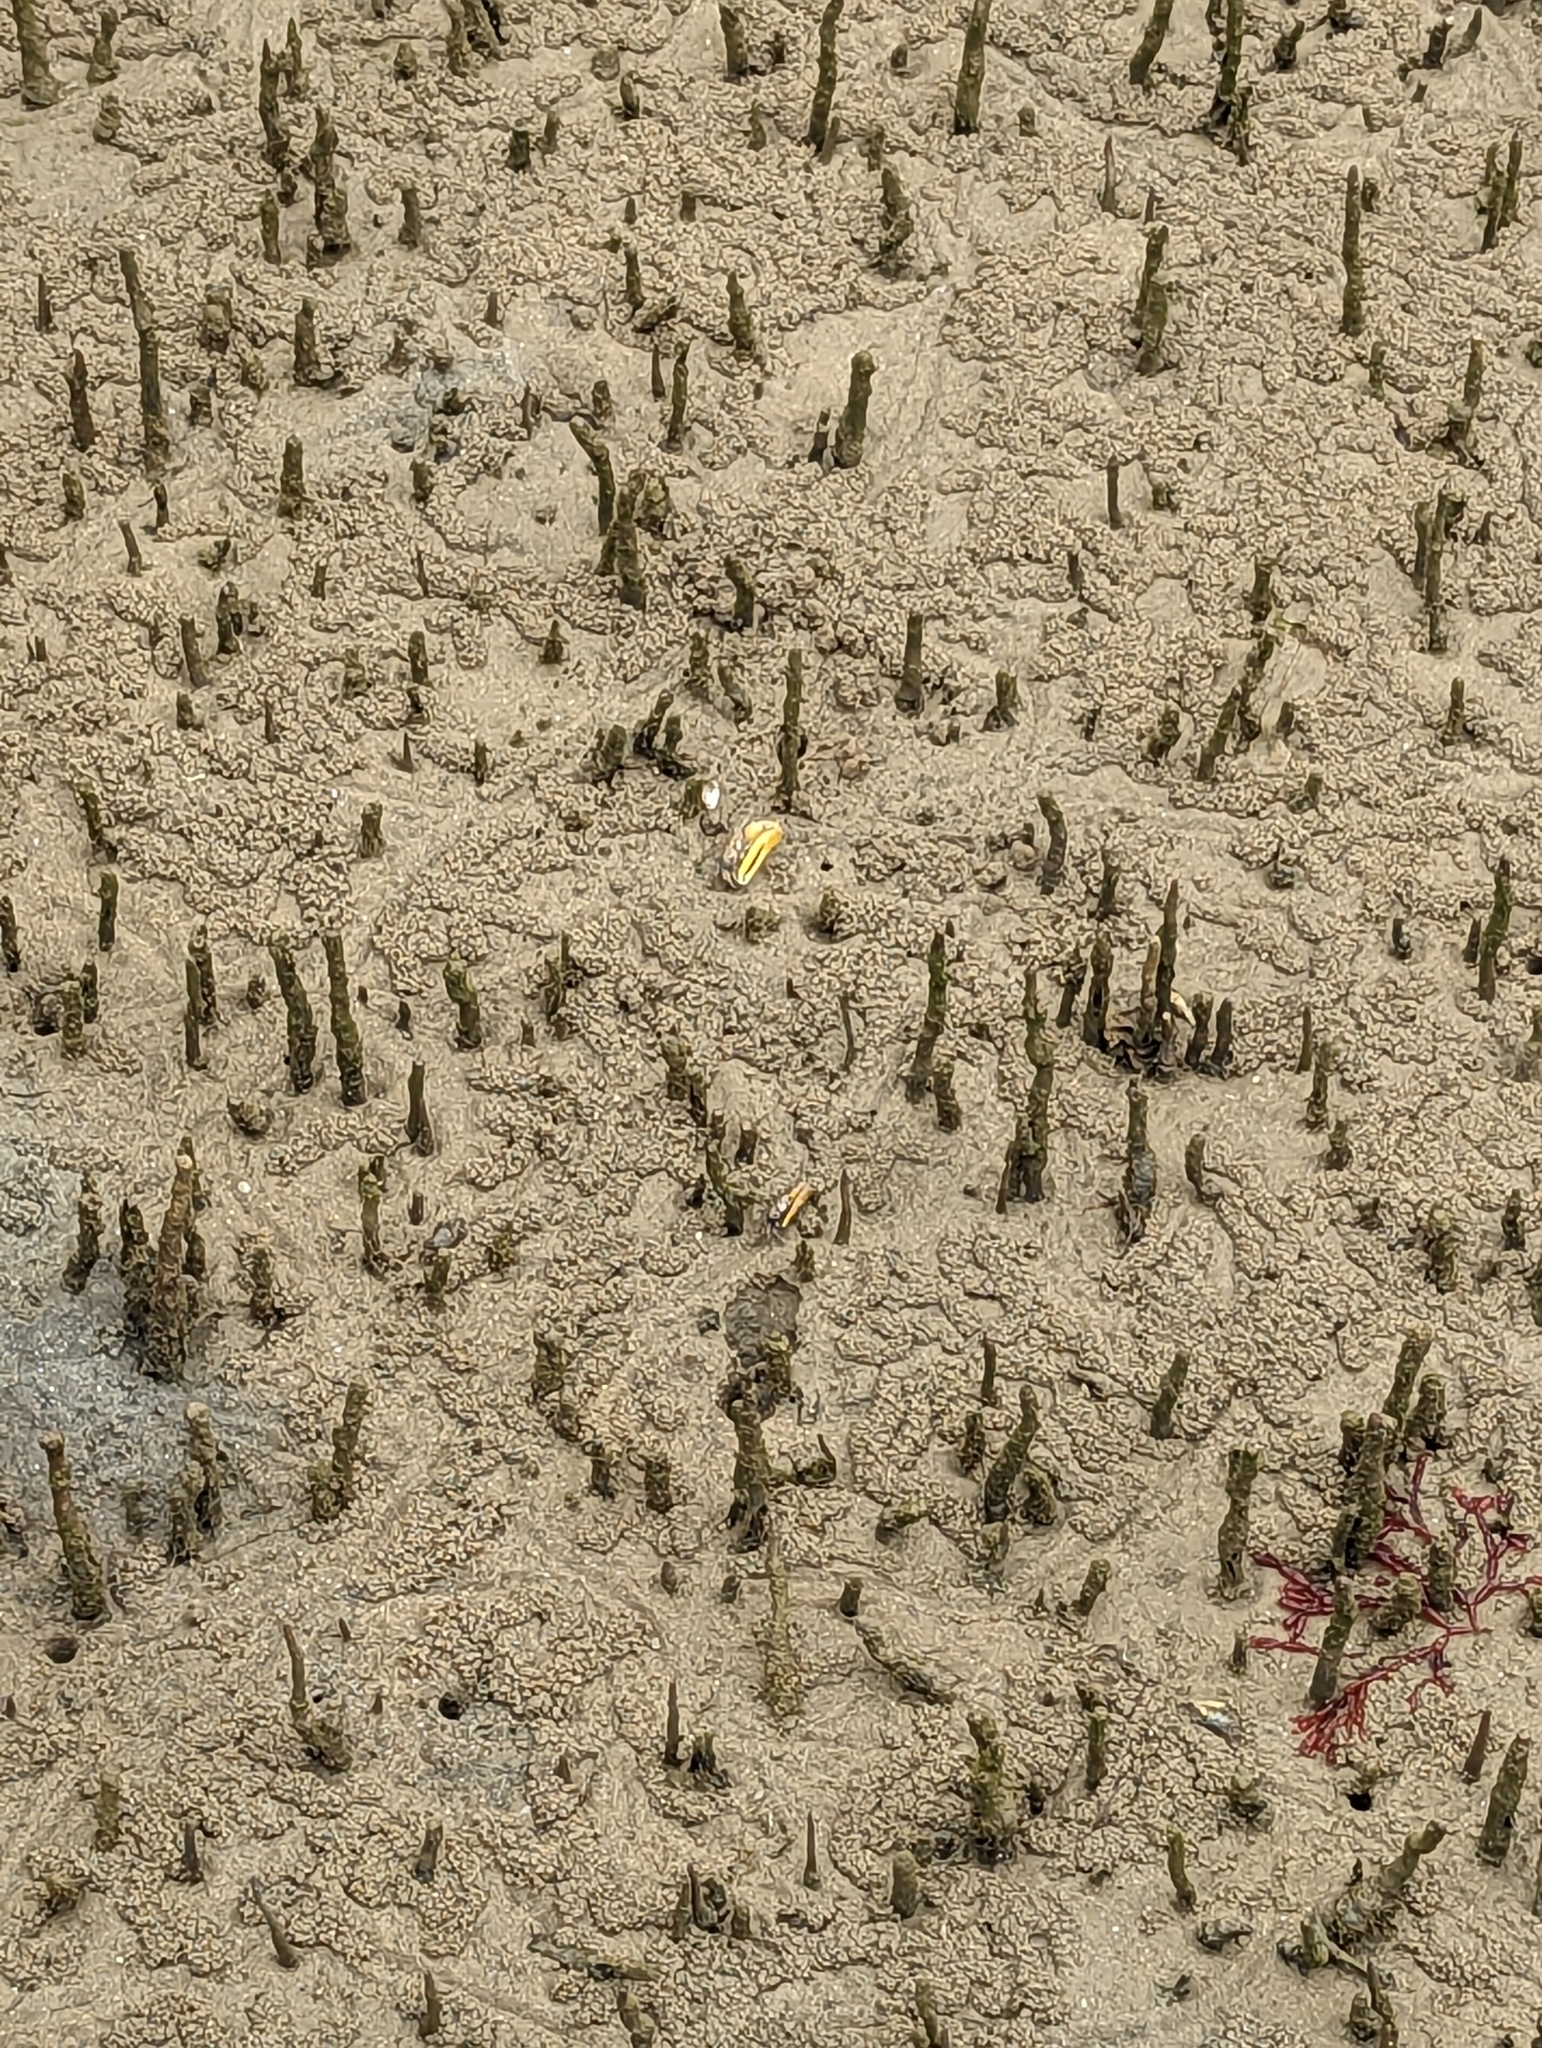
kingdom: Animalia
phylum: Arthropoda
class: Malacostraca
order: Decapoda
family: Ocypodidae
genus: Austruca
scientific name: Austruca perplexa
